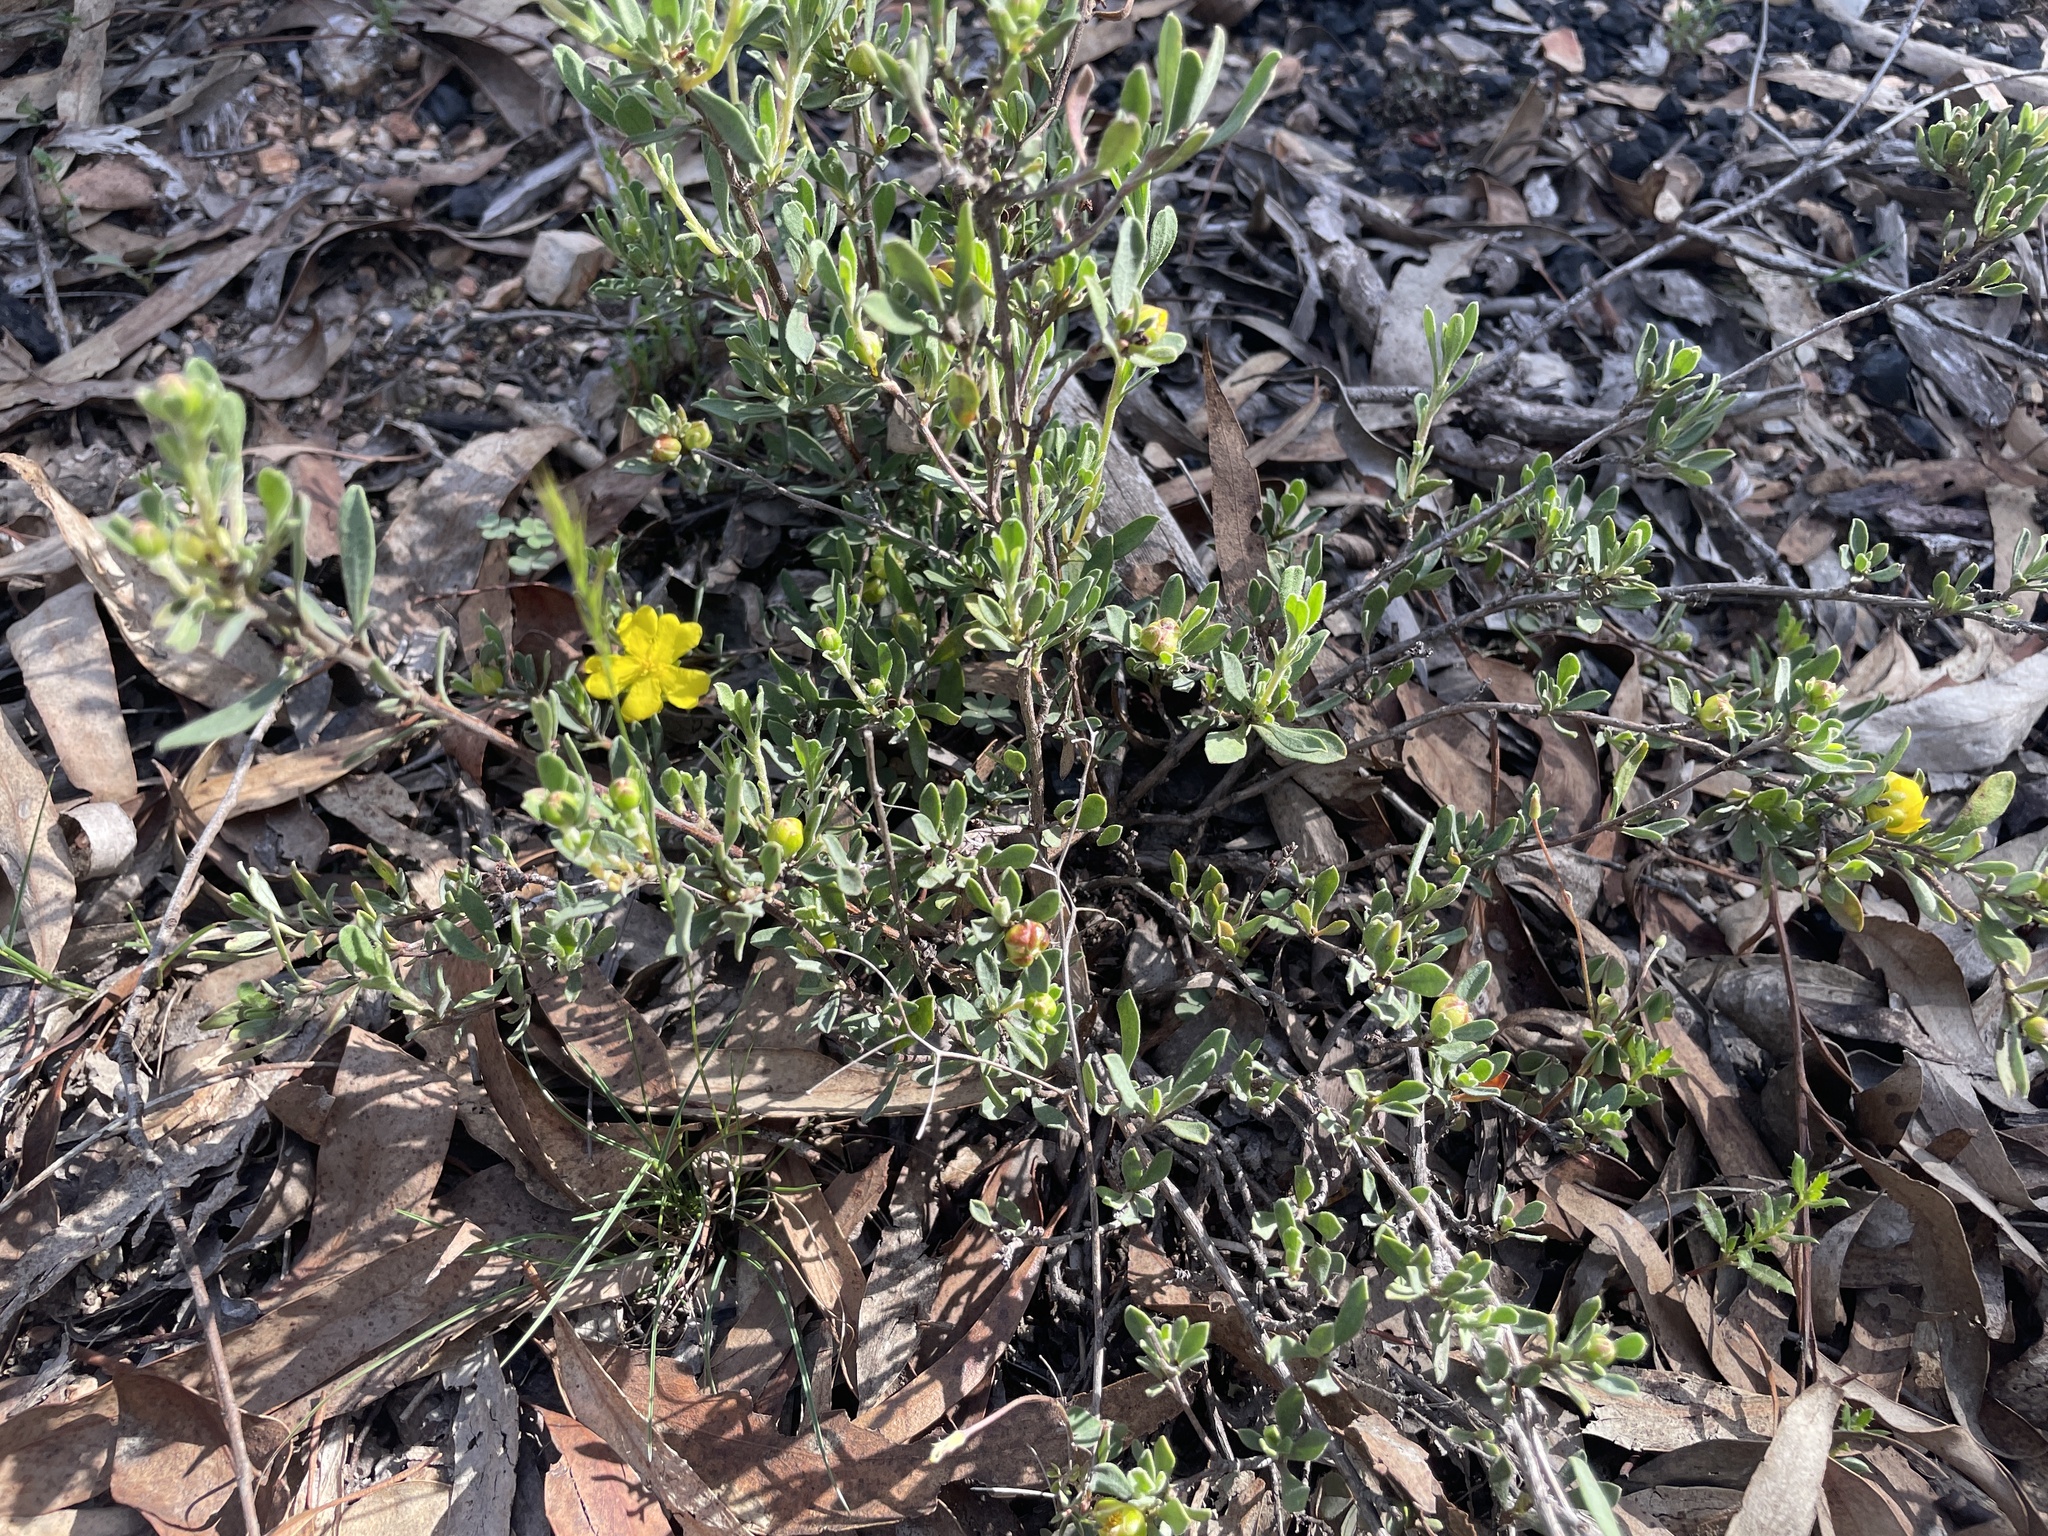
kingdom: Plantae
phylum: Tracheophyta
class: Magnoliopsida
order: Dilleniales
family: Dilleniaceae
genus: Hibbertia
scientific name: Hibbertia obtusifolia
